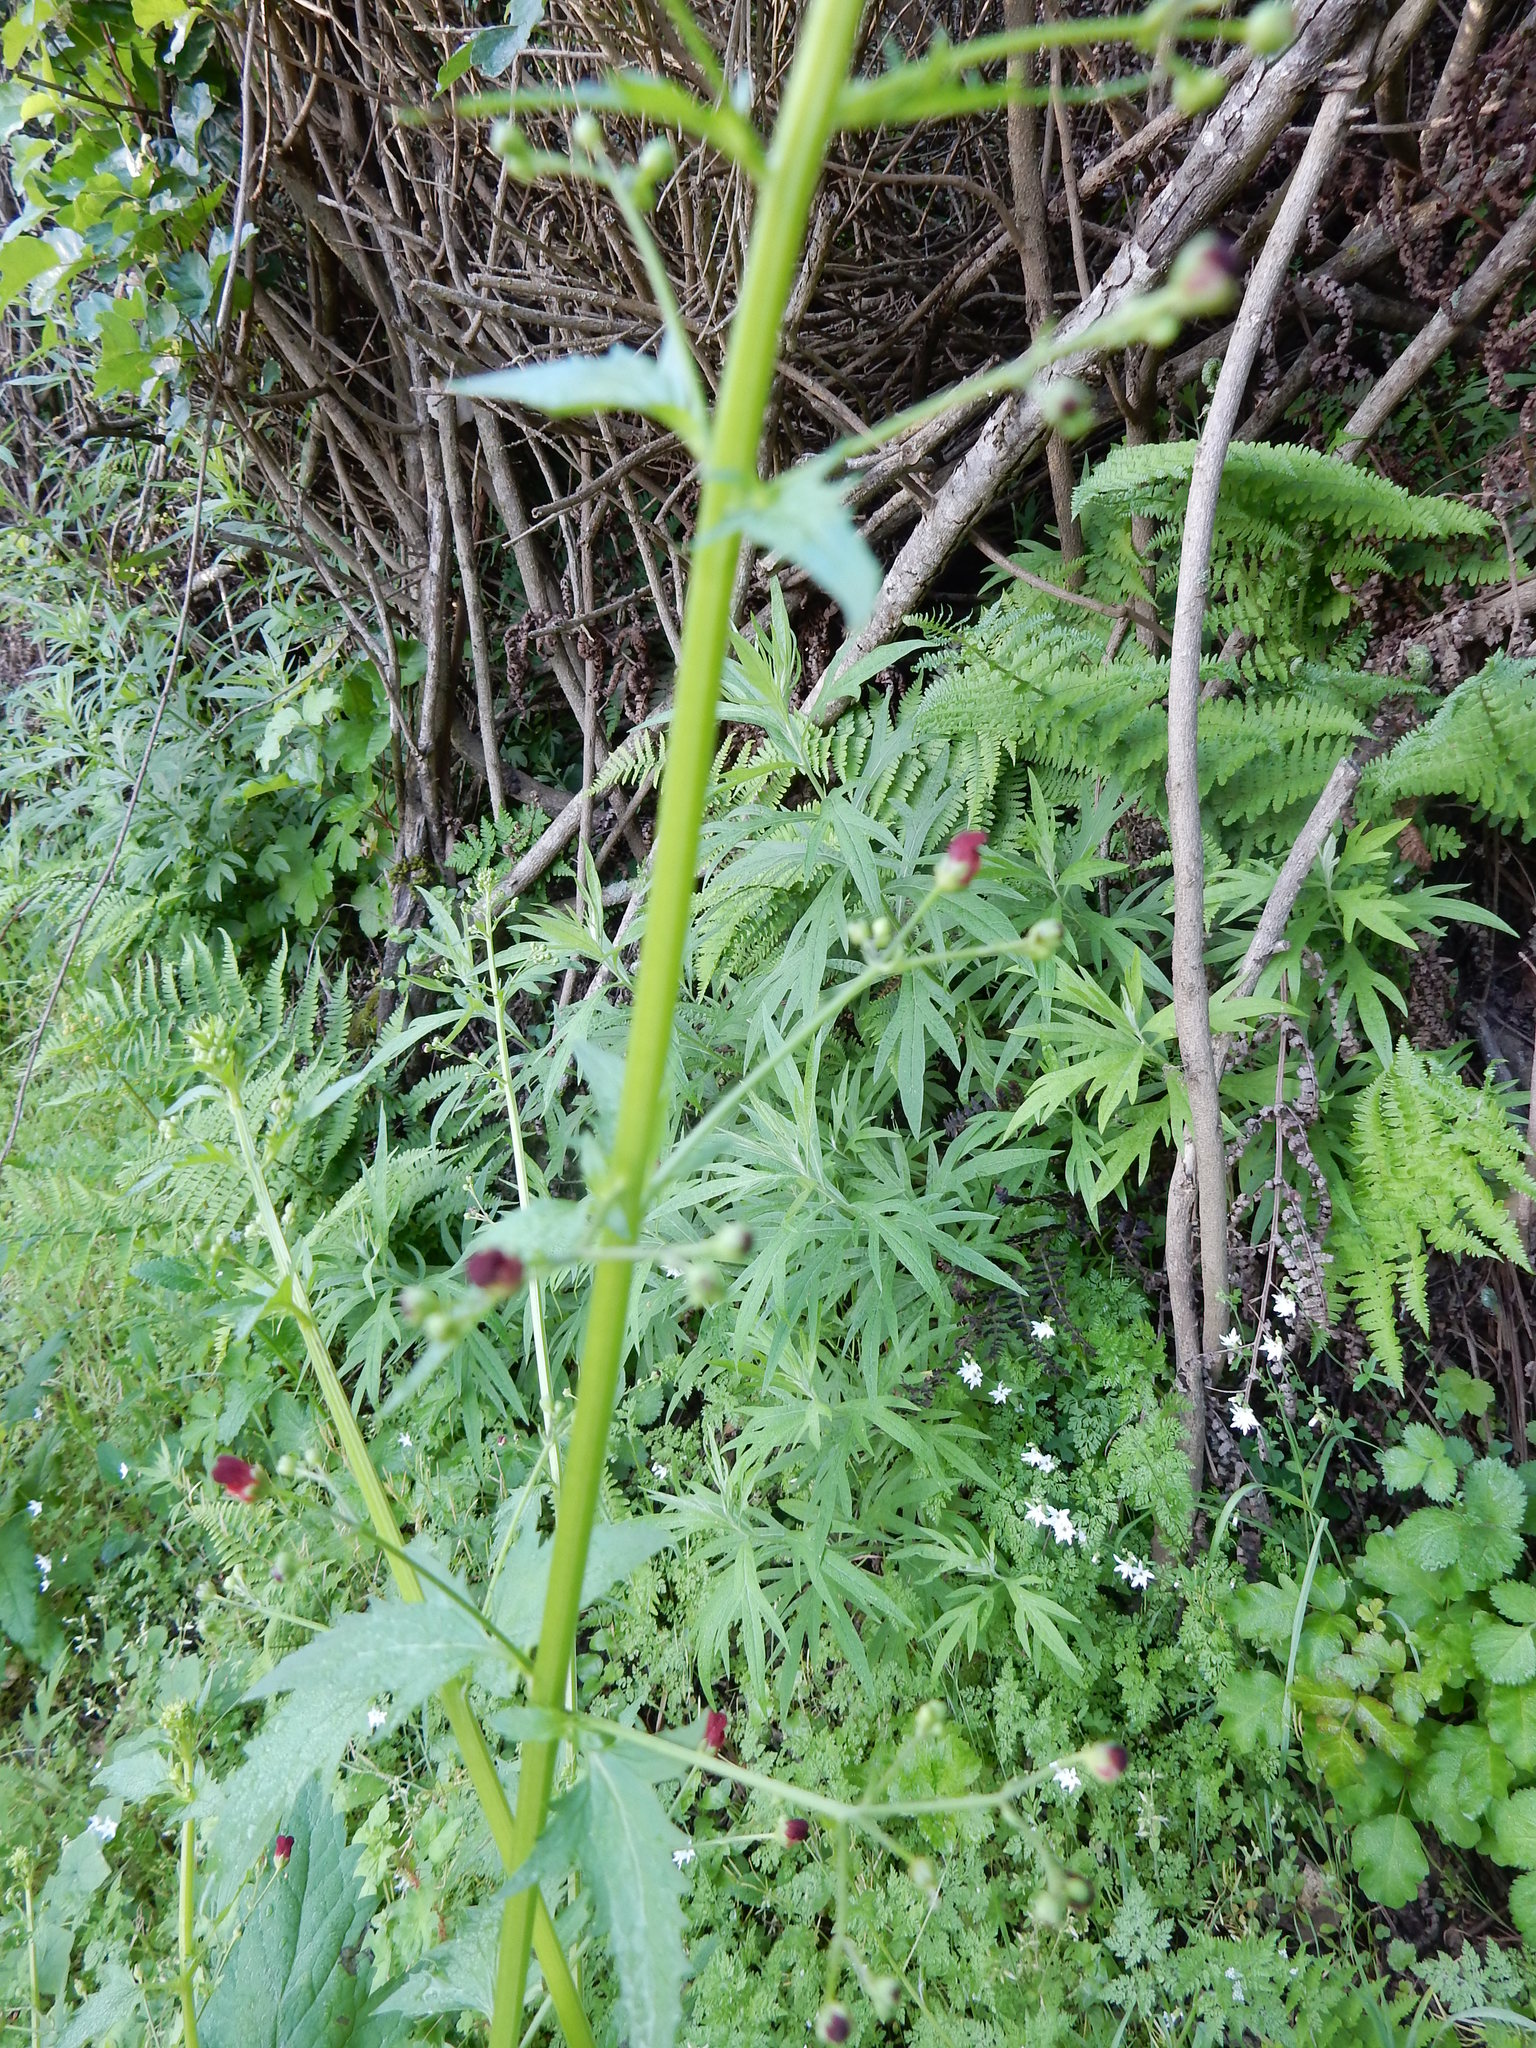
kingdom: Plantae
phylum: Tracheophyta
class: Magnoliopsida
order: Lamiales
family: Scrophulariaceae
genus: Scrophularia
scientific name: Scrophularia californica
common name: California figwort
